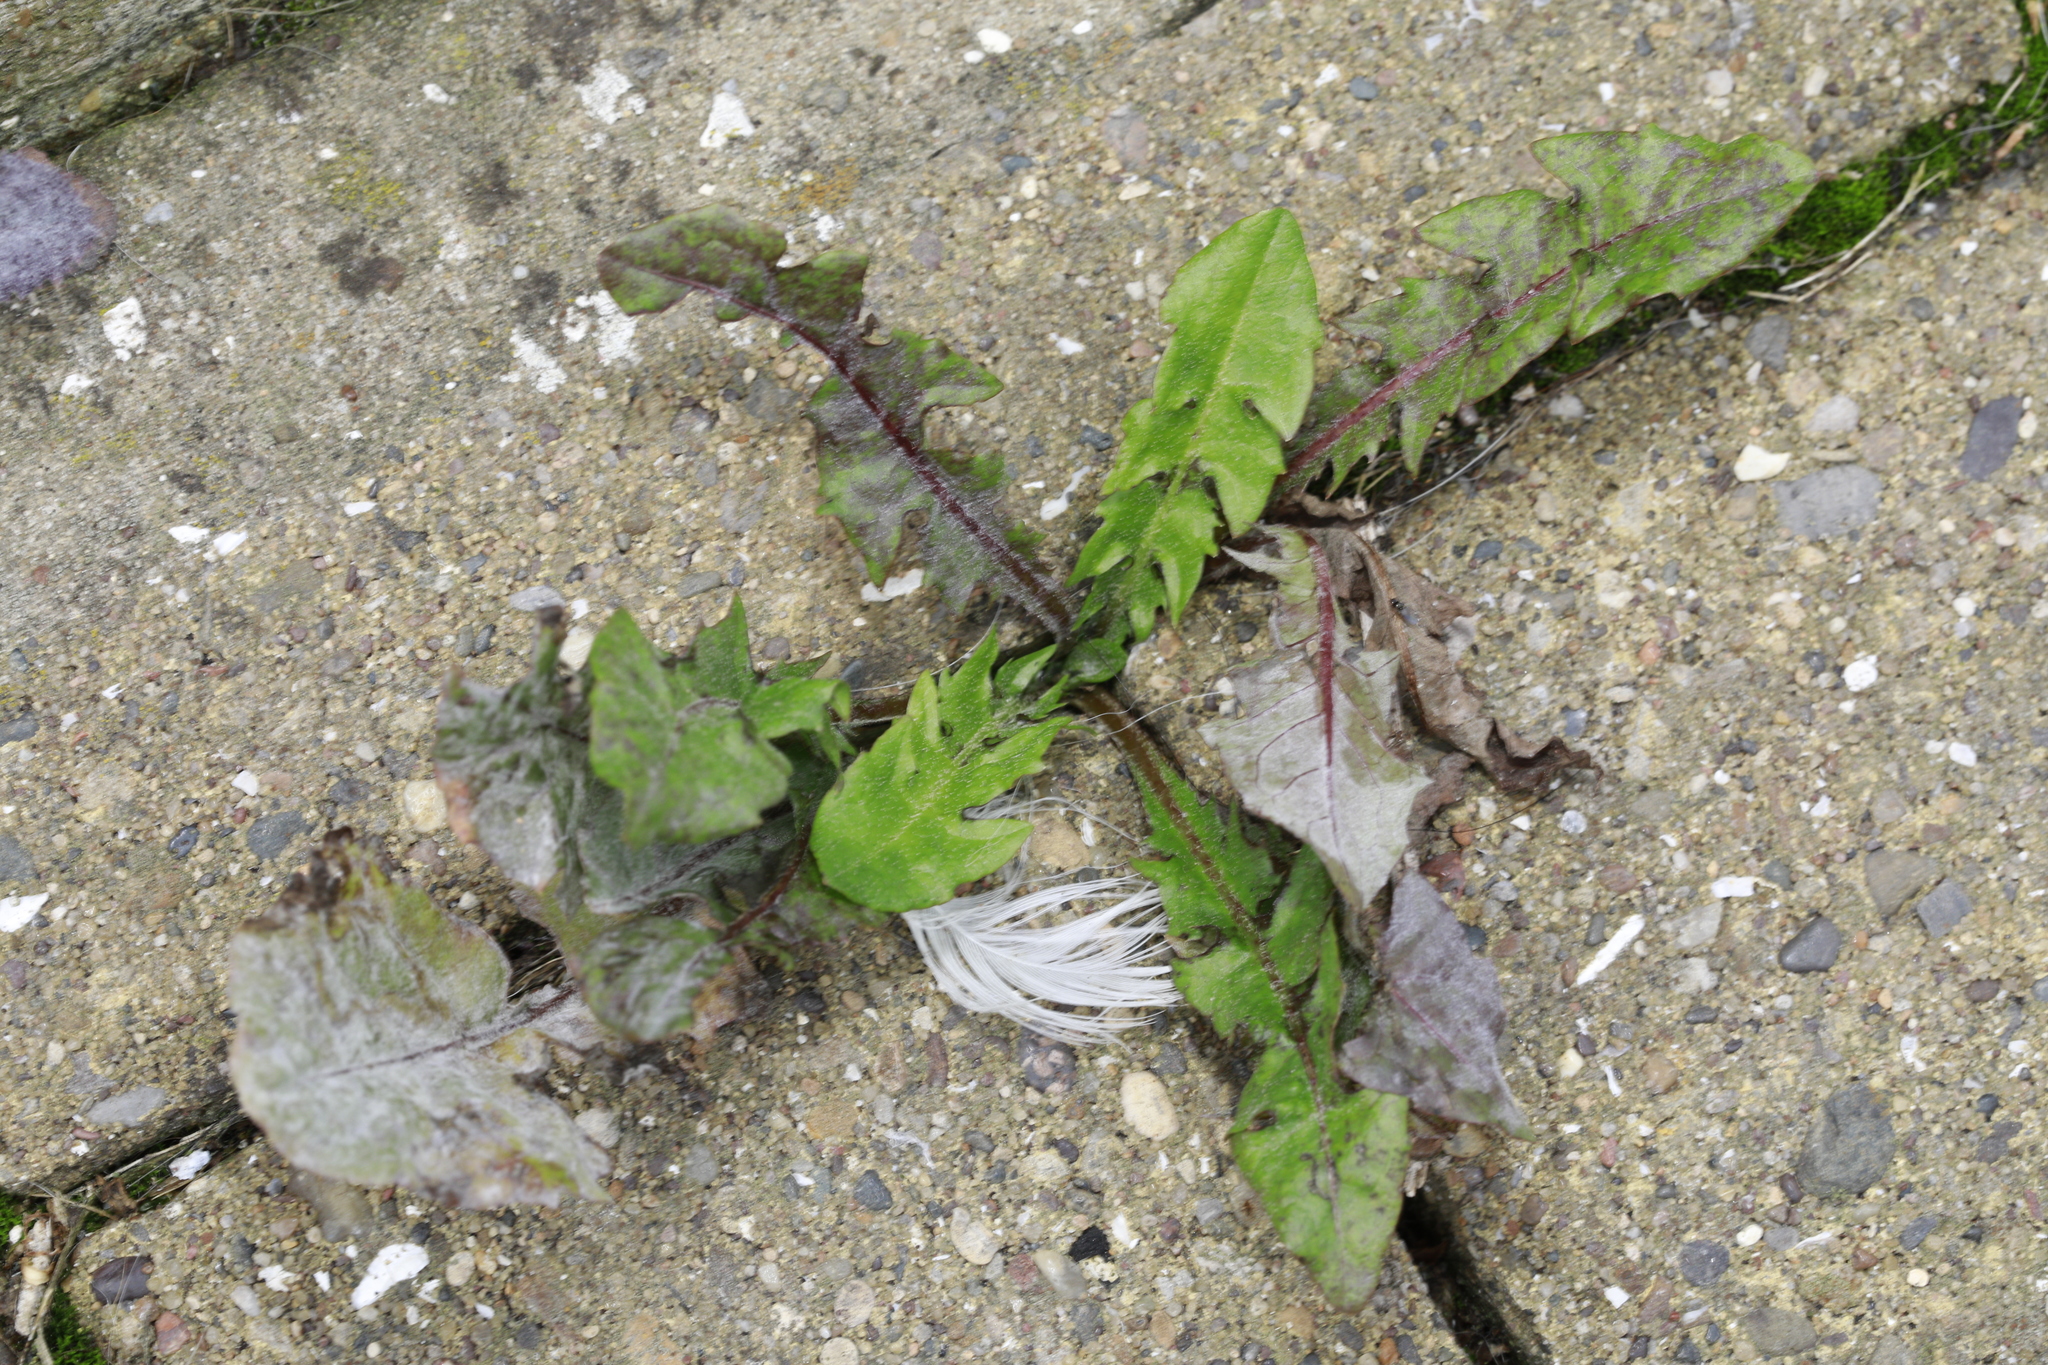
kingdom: Plantae
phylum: Tracheophyta
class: Magnoliopsida
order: Asterales
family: Asteraceae
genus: Taraxacum
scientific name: Taraxacum officinale
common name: Common dandelion
